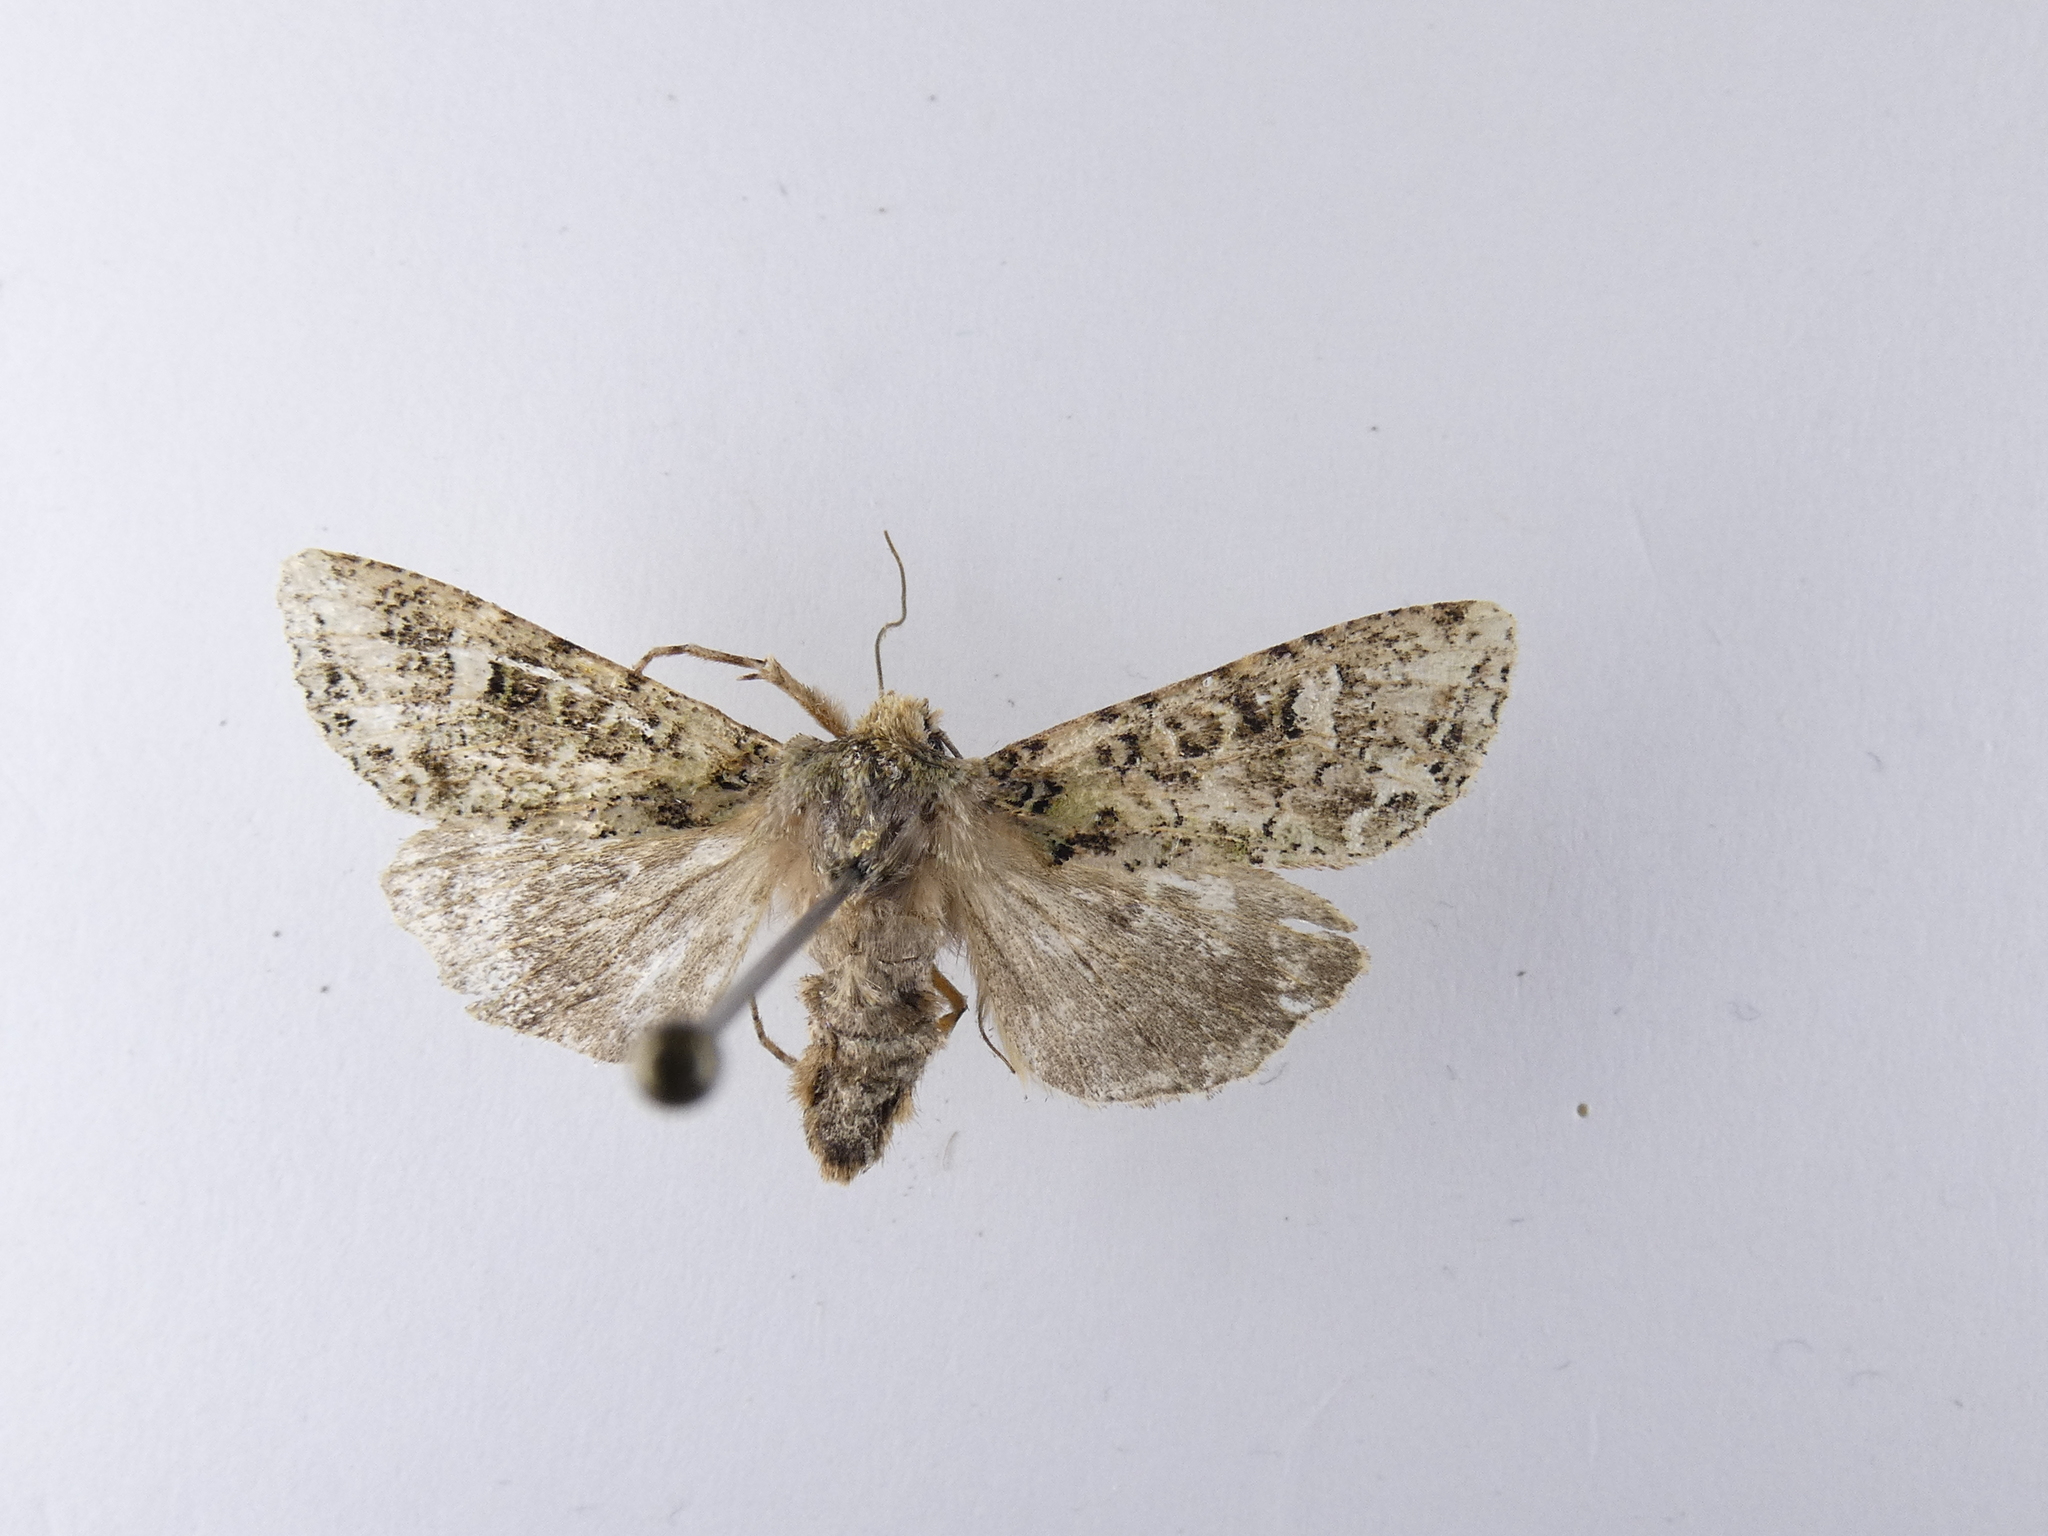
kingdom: Animalia
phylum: Arthropoda
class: Insecta
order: Lepidoptera
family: Noctuidae
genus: Ichneutica
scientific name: Ichneutica
